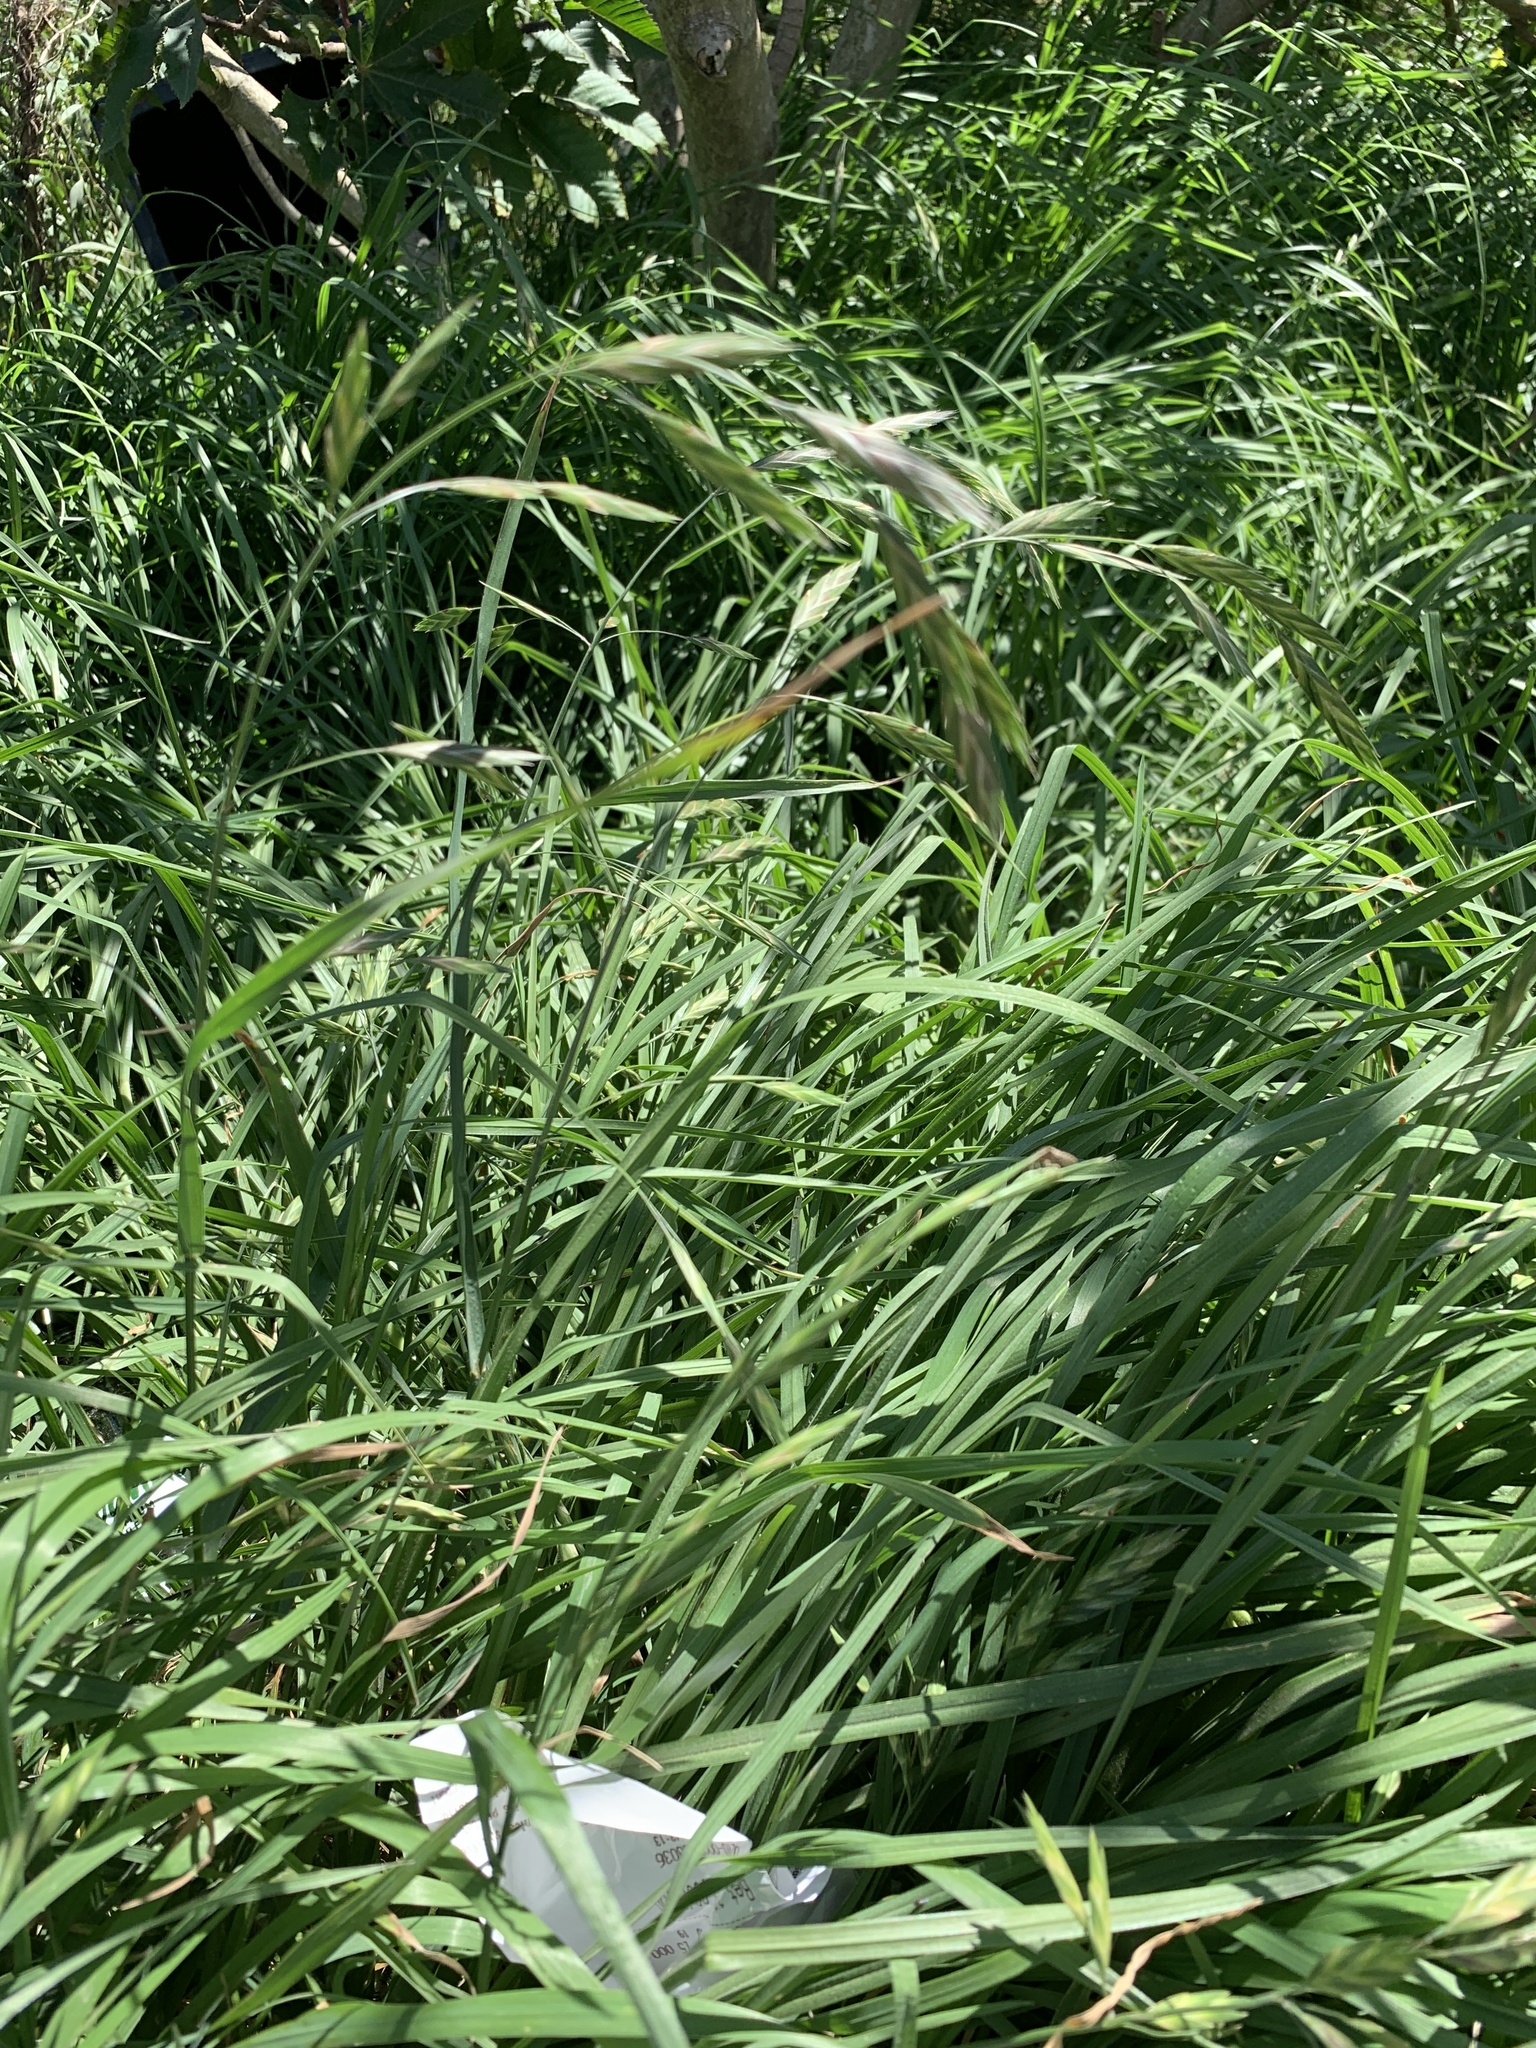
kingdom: Plantae
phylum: Tracheophyta
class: Liliopsida
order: Poales
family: Poaceae
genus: Bromus
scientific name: Bromus catharticus
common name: Rescuegrass
